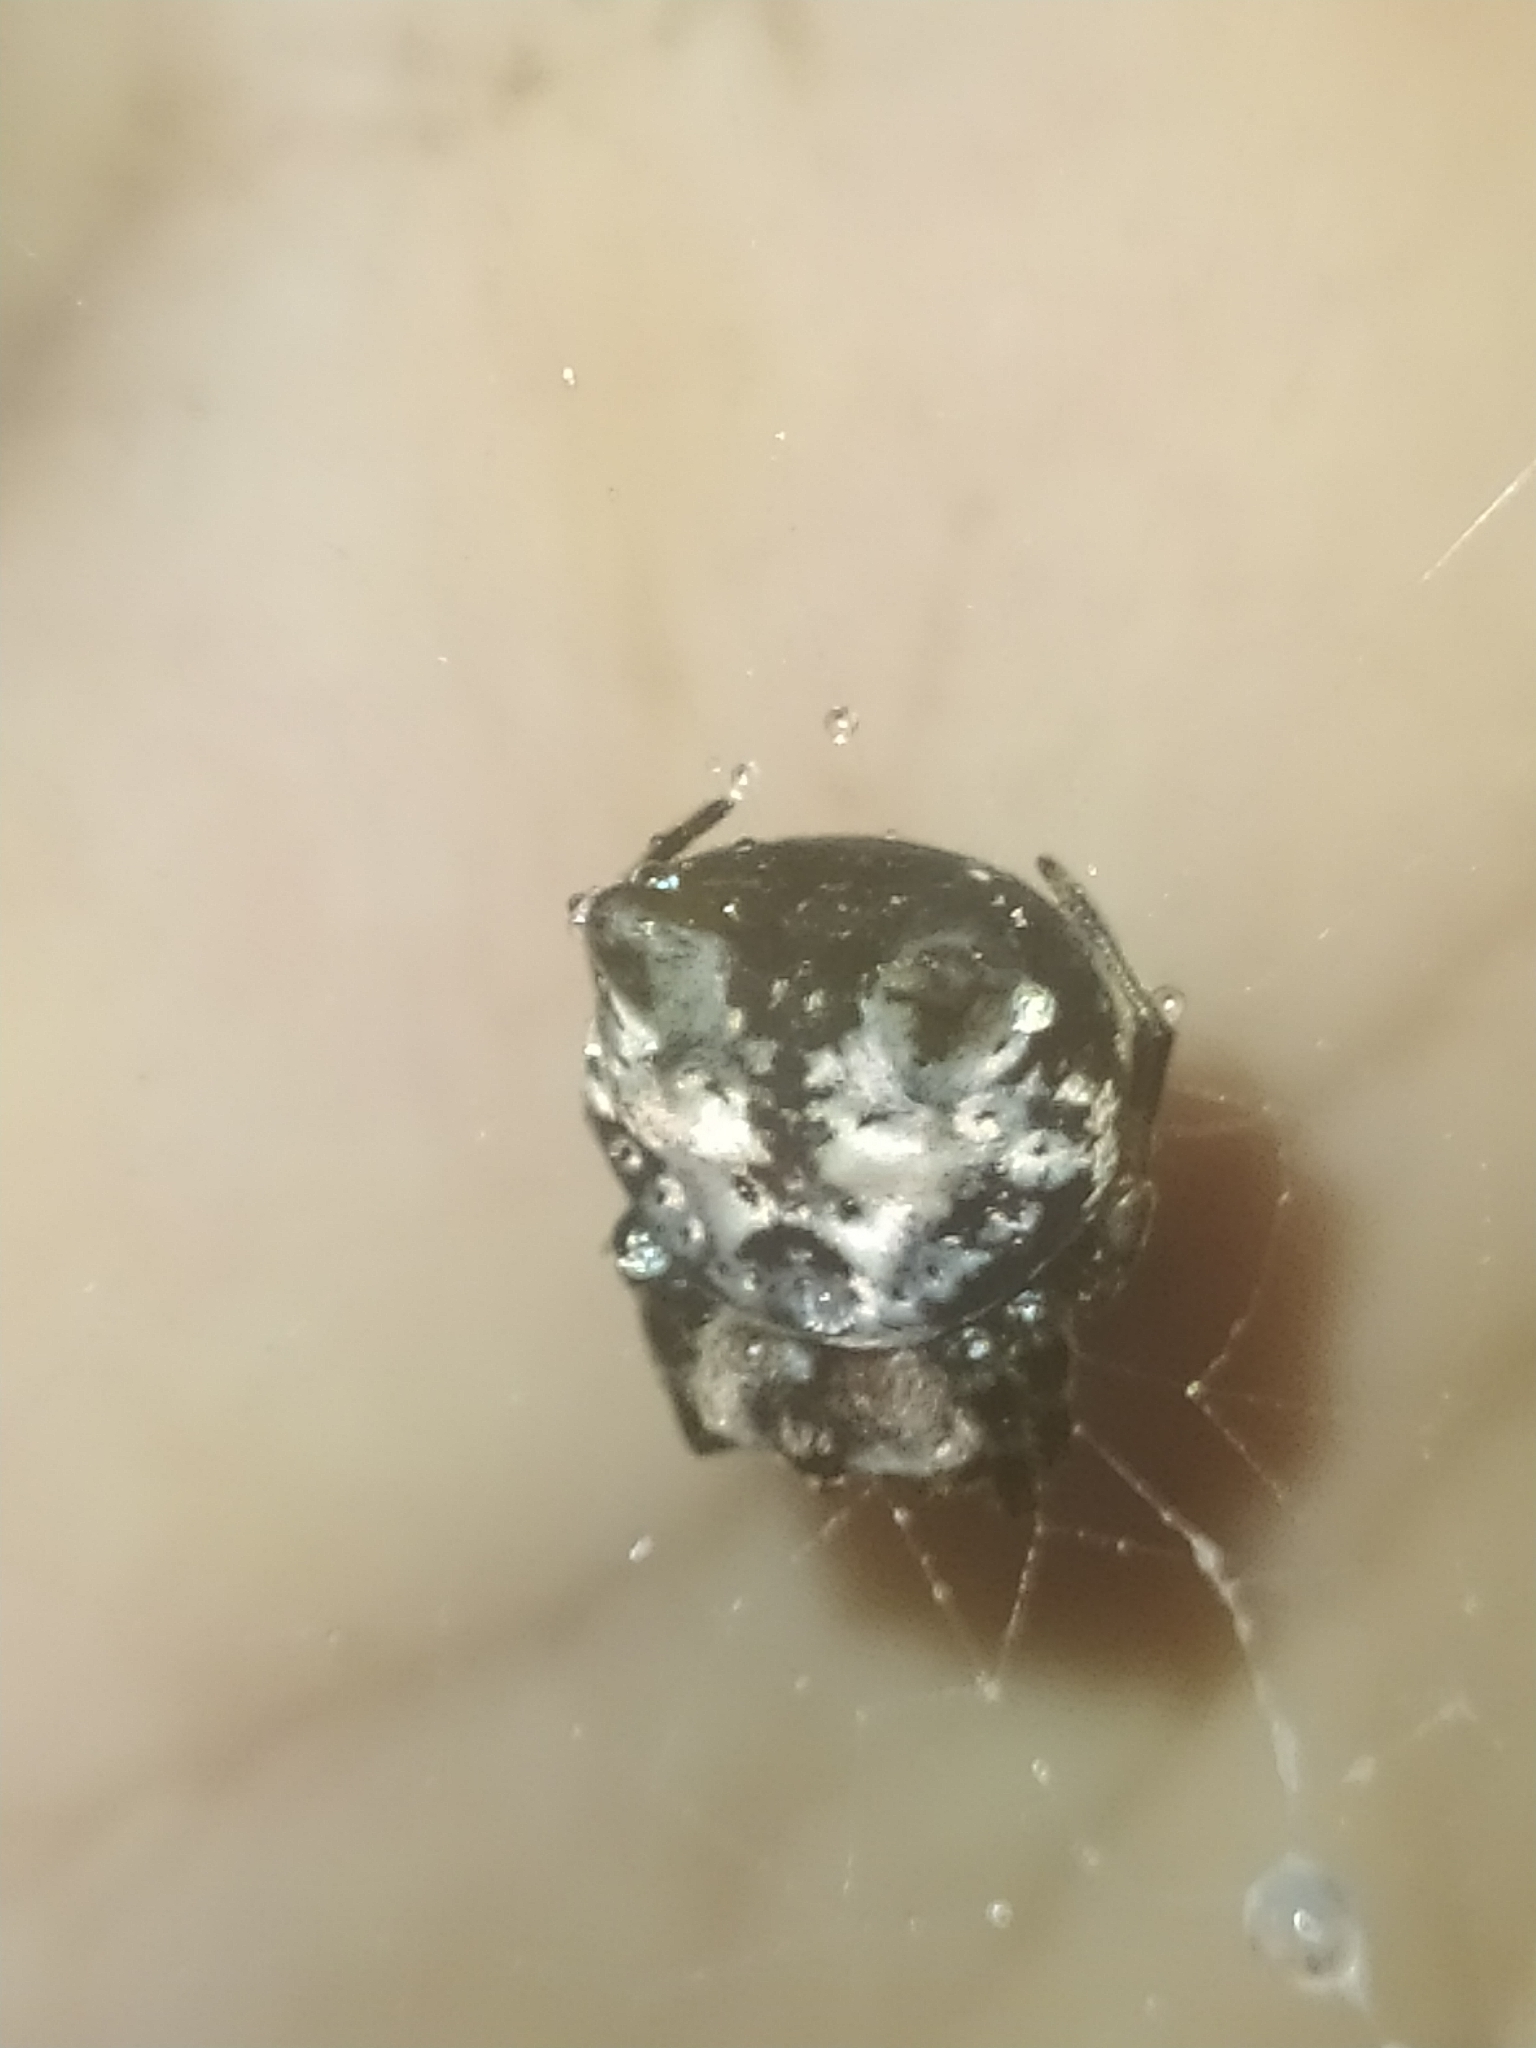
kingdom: Animalia
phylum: Arthropoda
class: Arachnida
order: Araneae
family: Araneidae
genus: Aspidolasius
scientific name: Aspidolasius branicki
